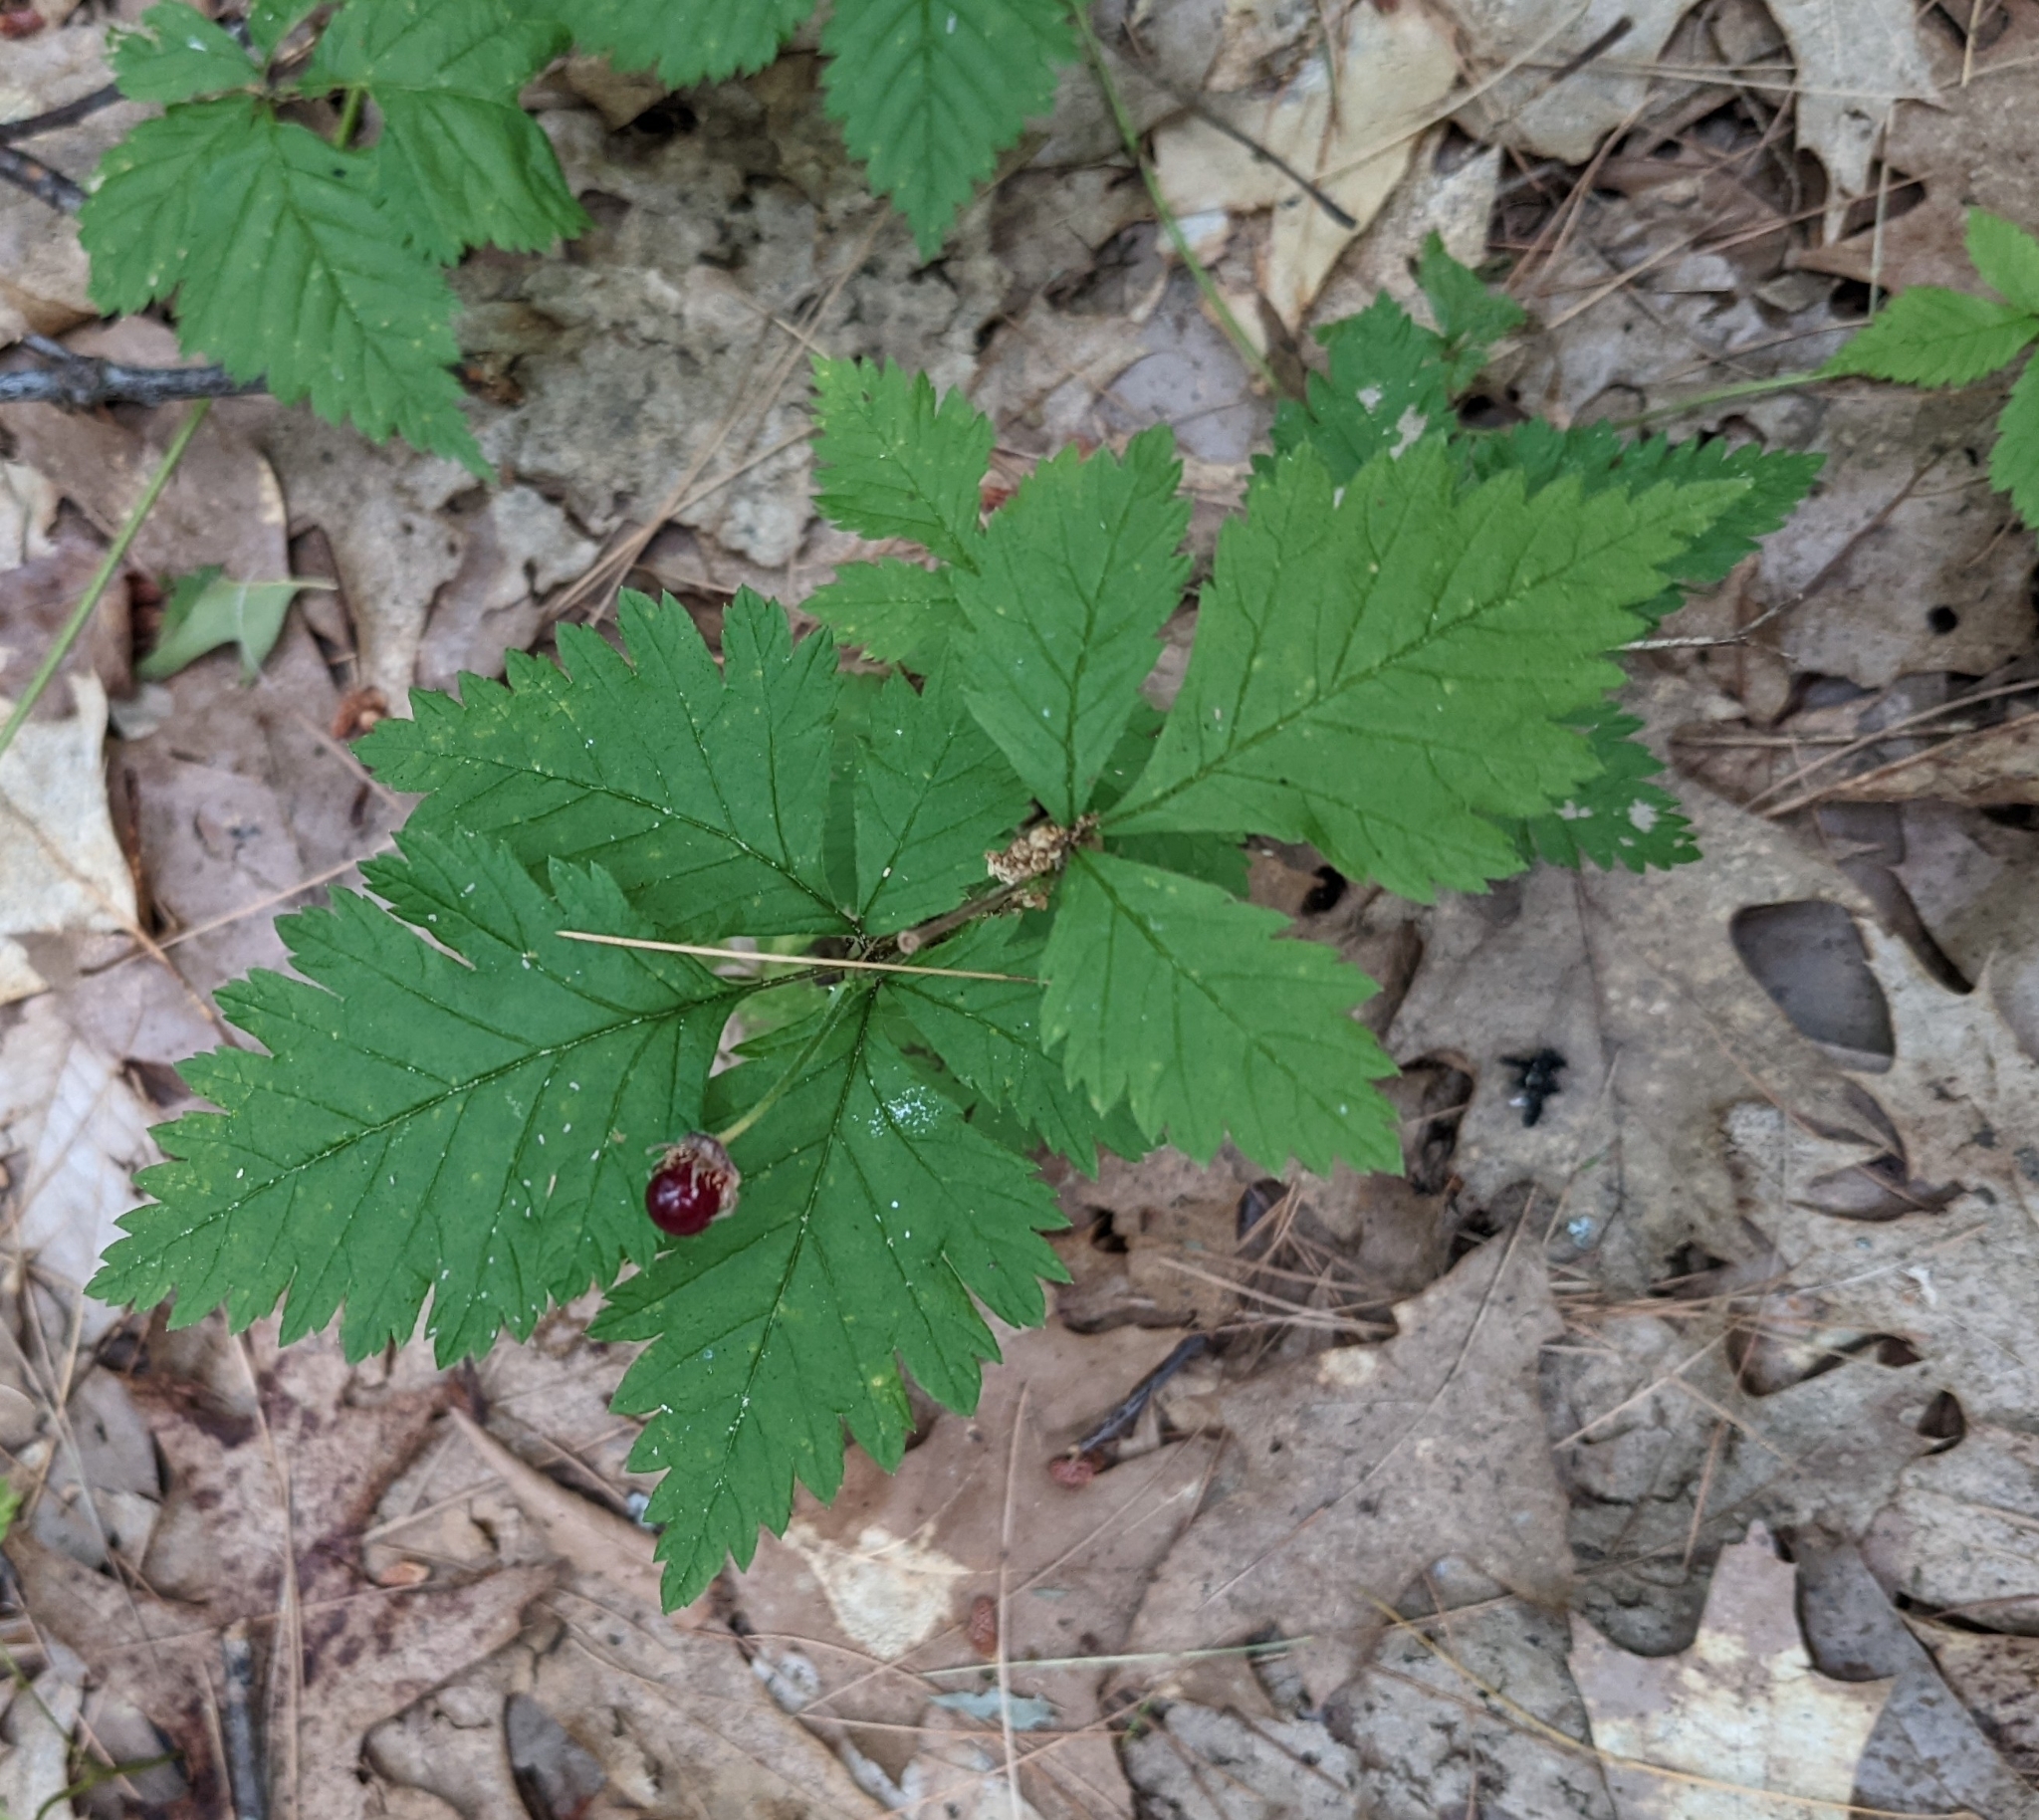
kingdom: Plantae
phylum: Tracheophyta
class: Magnoliopsida
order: Rosales
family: Rosaceae
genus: Rubus
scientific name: Rubus pubescens
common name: Dwarf raspberry
